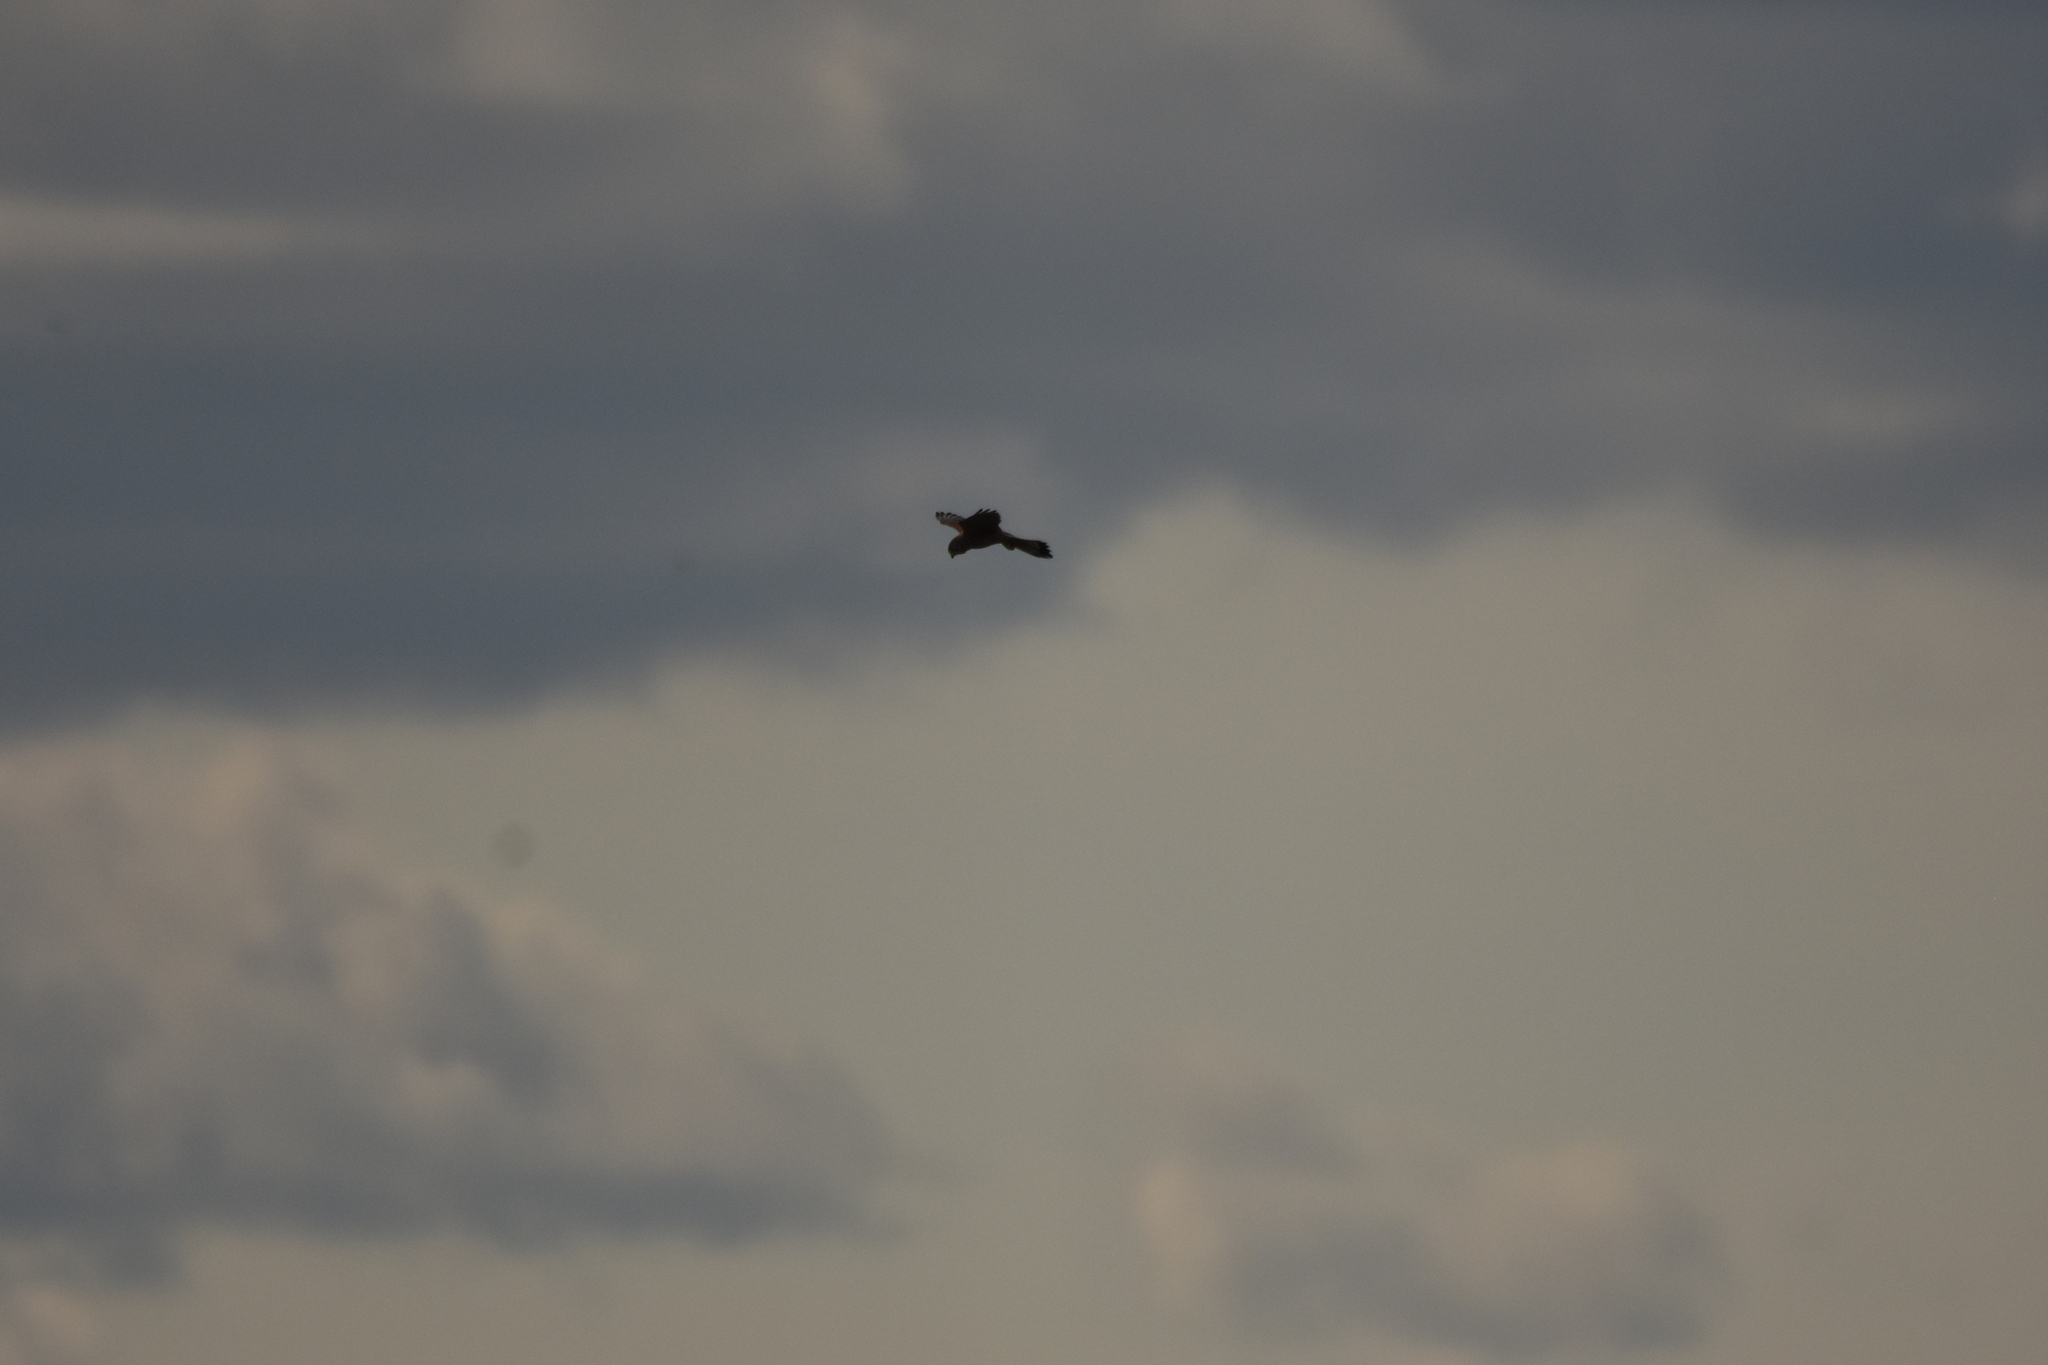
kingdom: Animalia
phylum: Chordata
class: Aves
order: Falconiformes
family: Falconidae
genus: Falco
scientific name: Falco tinnunculus
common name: Common kestrel
